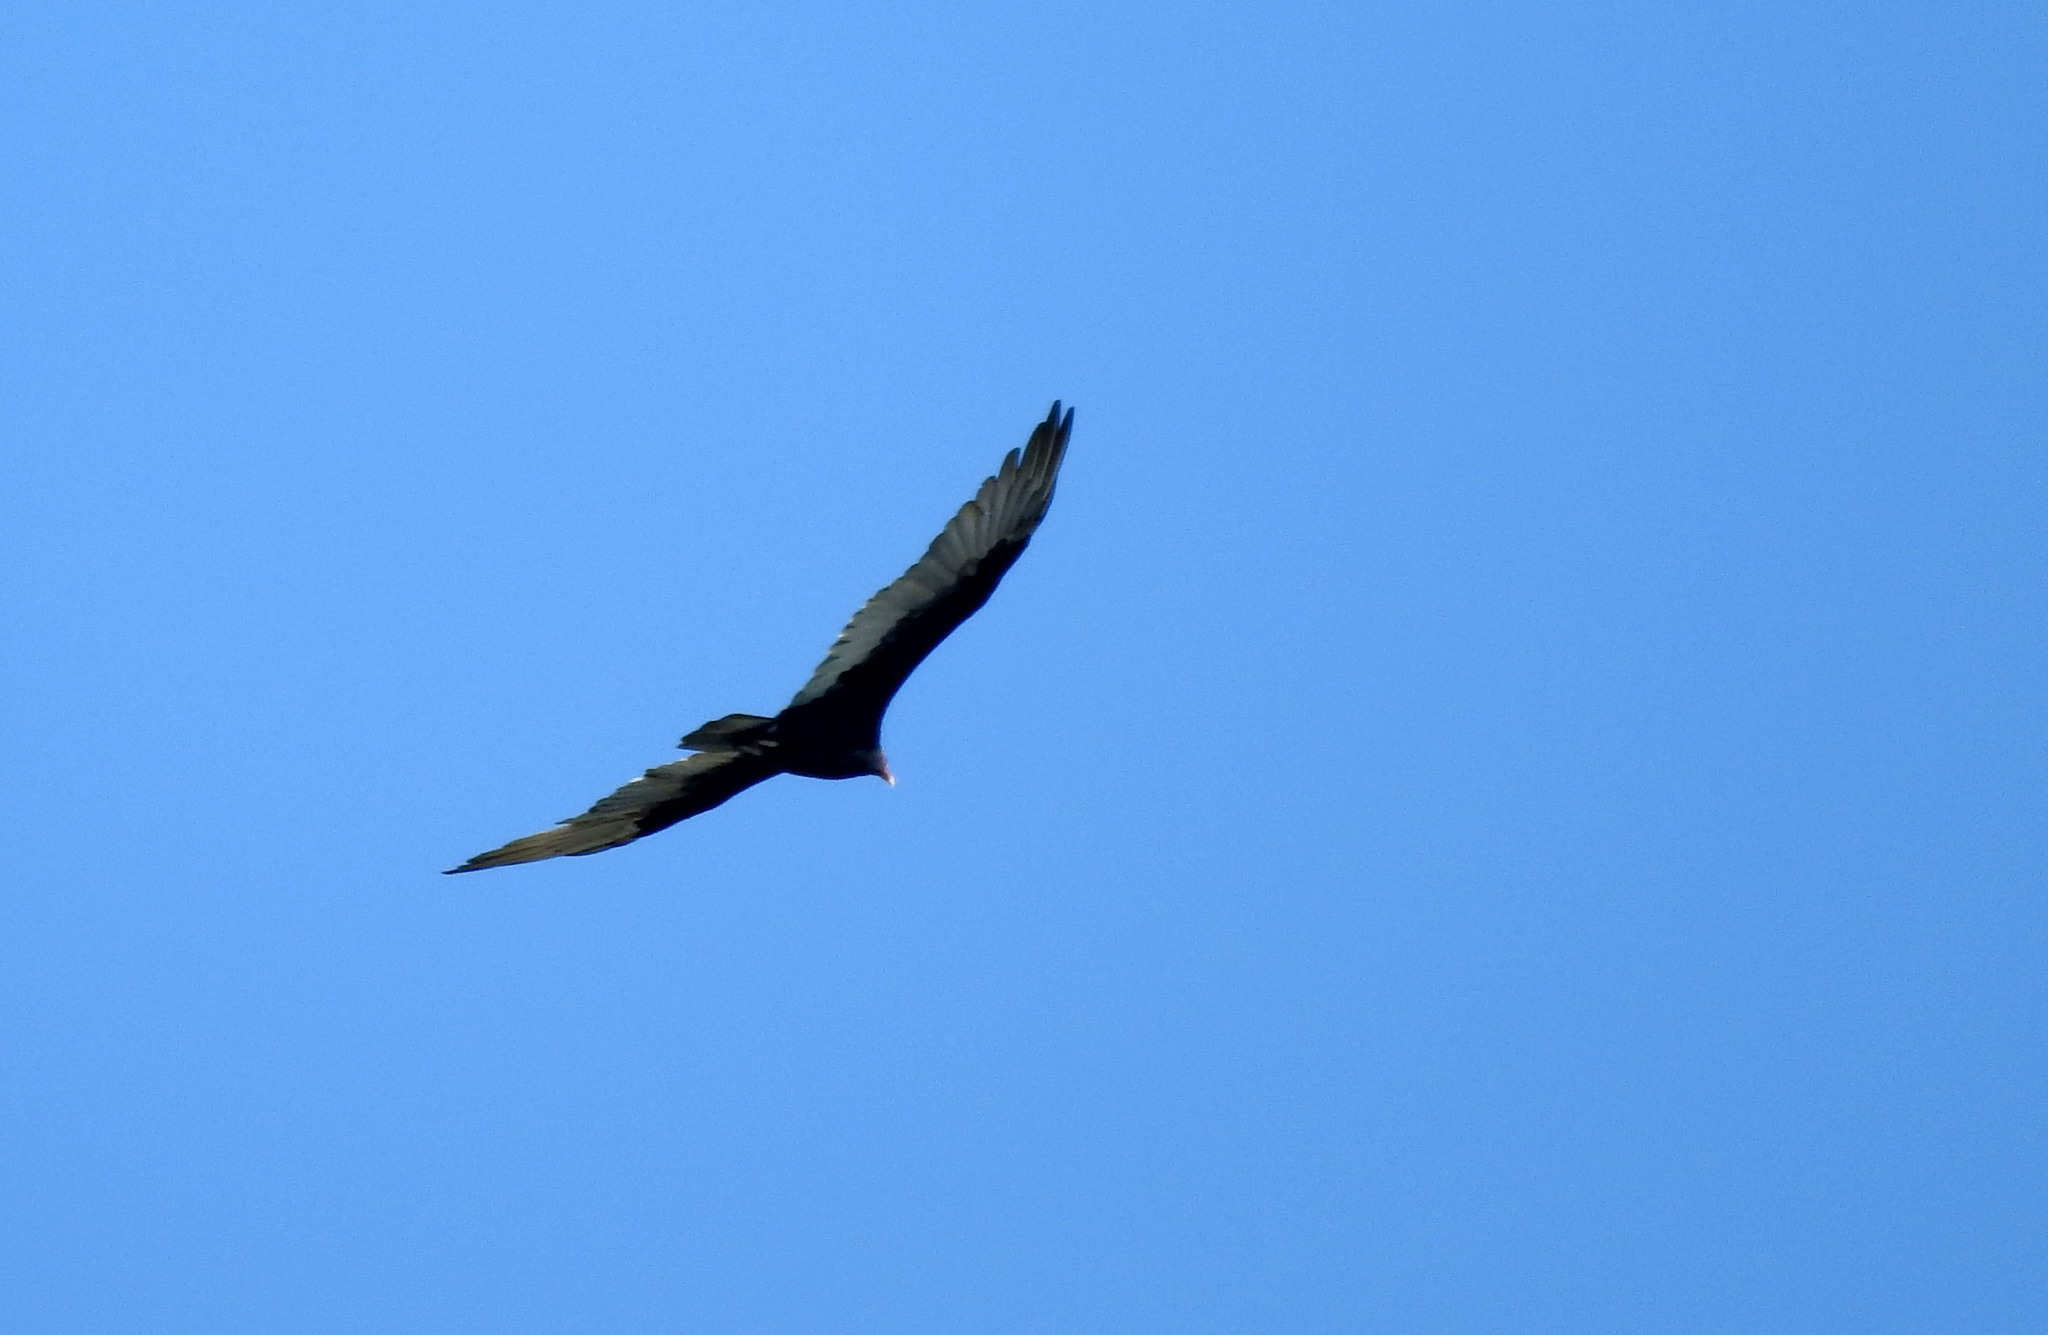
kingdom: Animalia
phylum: Chordata
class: Aves
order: Accipitriformes
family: Cathartidae
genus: Cathartes
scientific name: Cathartes aura
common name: Turkey vulture
